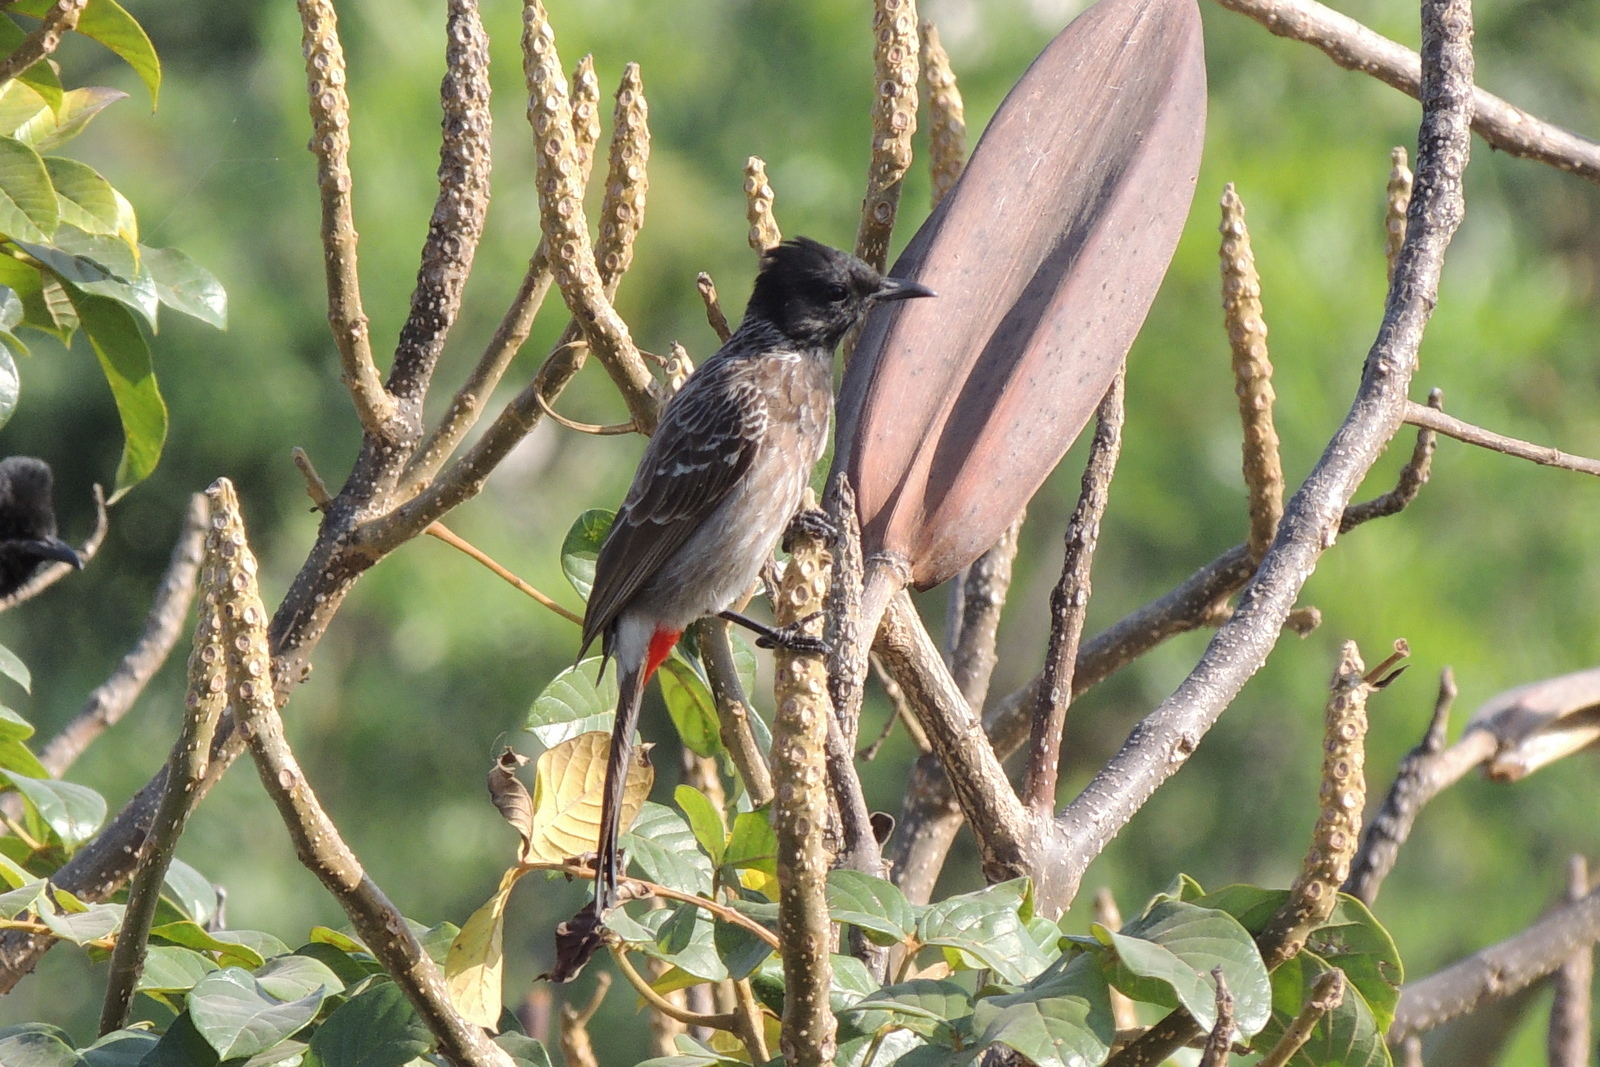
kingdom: Animalia
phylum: Chordata
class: Aves
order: Passeriformes
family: Pycnonotidae
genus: Pycnonotus
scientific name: Pycnonotus cafer
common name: Red-vented bulbul
